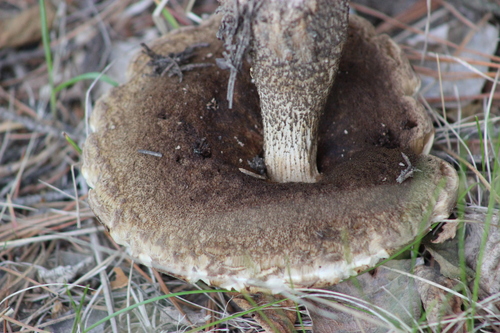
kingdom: Fungi
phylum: Basidiomycota
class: Agaricomycetes
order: Boletales
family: Boletaceae
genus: Leccinum
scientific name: Leccinum scabrum
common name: Blushing bolete
